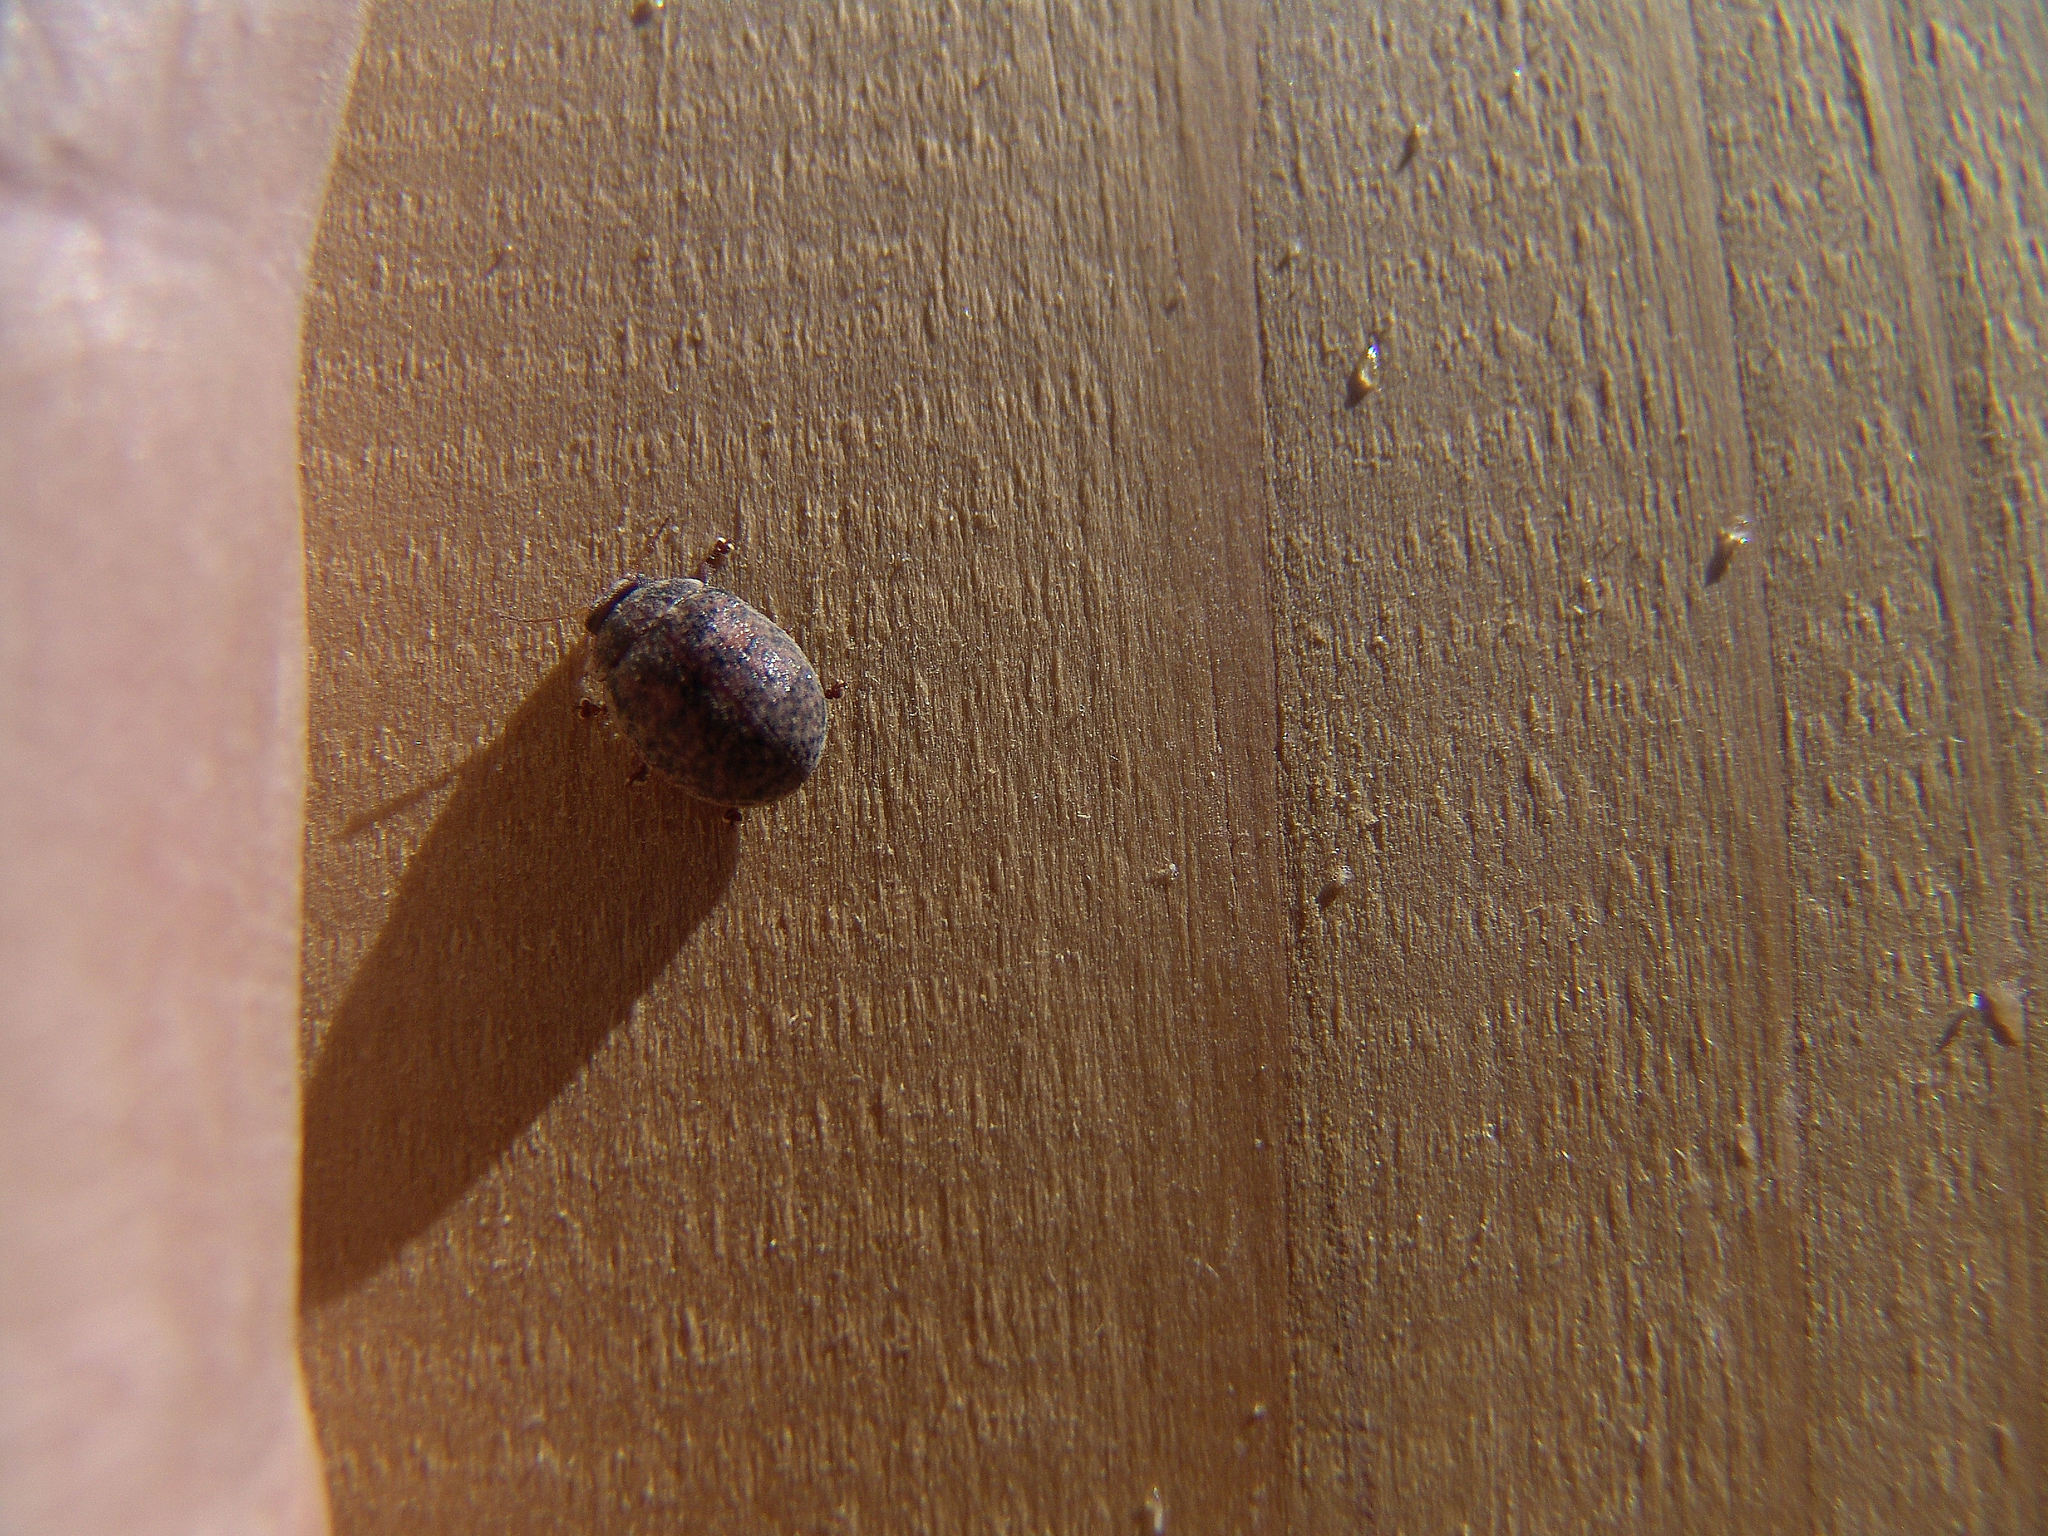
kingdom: Animalia
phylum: Arthropoda
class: Insecta
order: Coleoptera
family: Chrysomelidae
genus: Trachymela
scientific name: Trachymela sloanei
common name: Australian tortoise beetle
